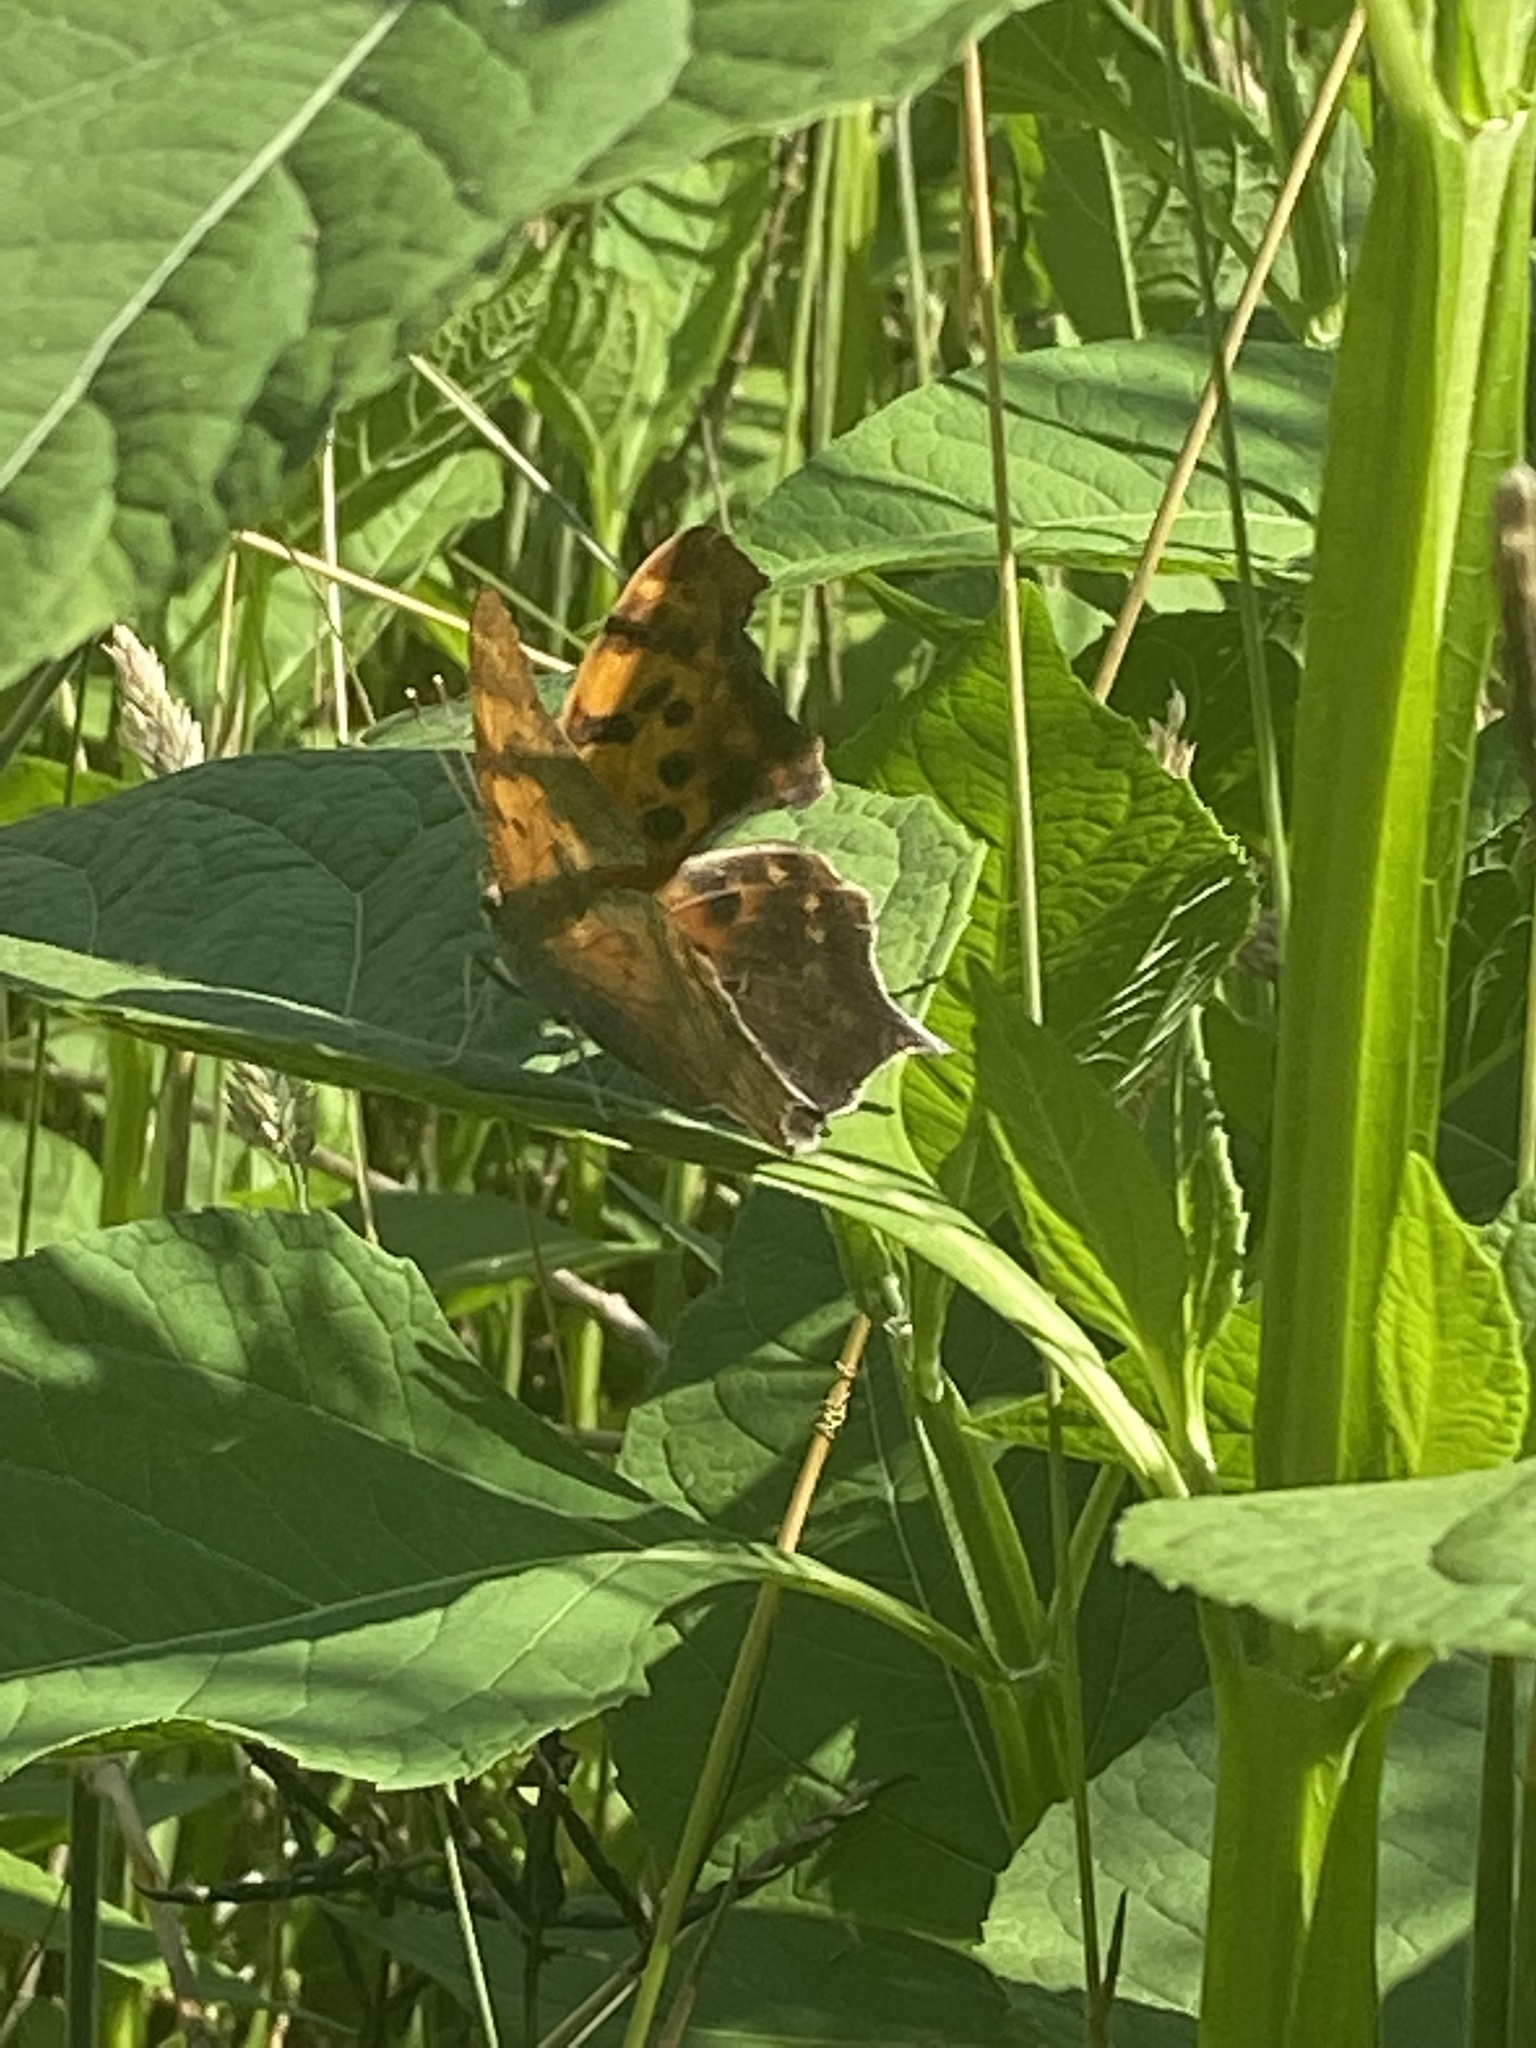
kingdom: Animalia
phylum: Arthropoda
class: Insecta
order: Lepidoptera
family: Nymphalidae
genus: Polygonia
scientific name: Polygonia interrogationis
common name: Question mark
